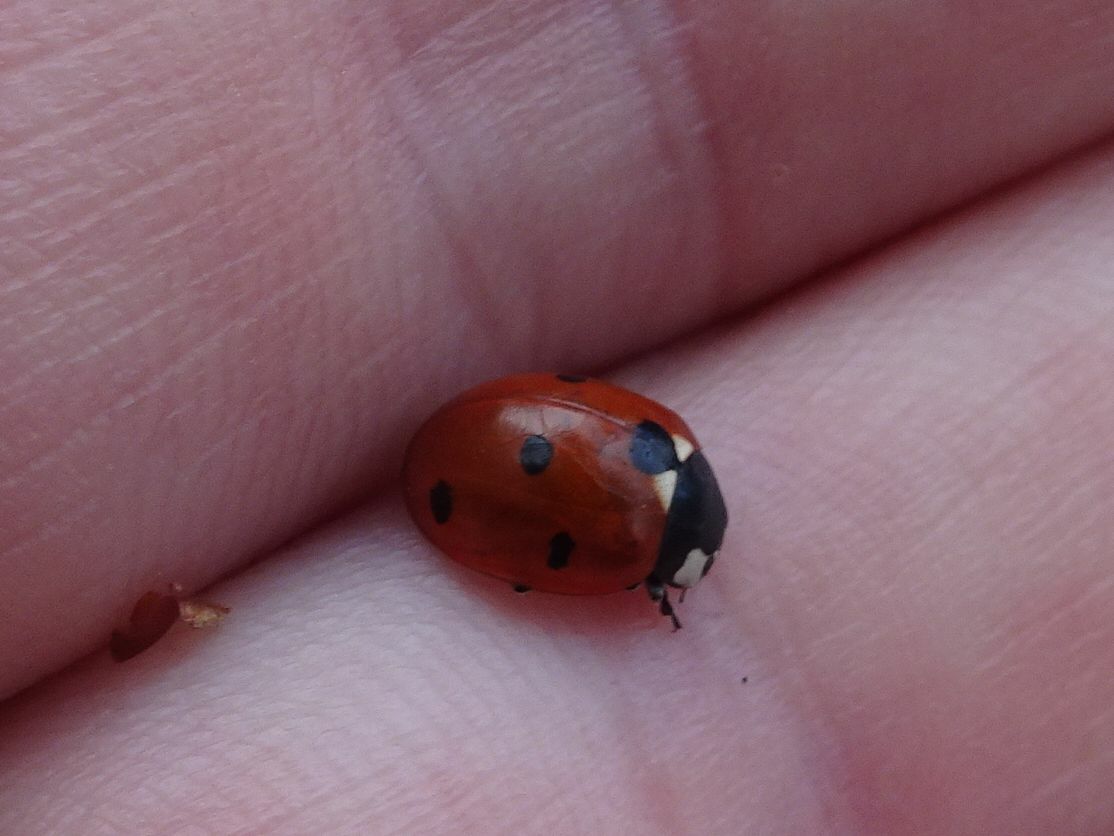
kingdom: Animalia
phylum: Arthropoda
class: Insecta
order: Coleoptera
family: Coccinellidae
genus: Coccinella
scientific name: Coccinella septempunctata
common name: Sevenspotted lady beetle
